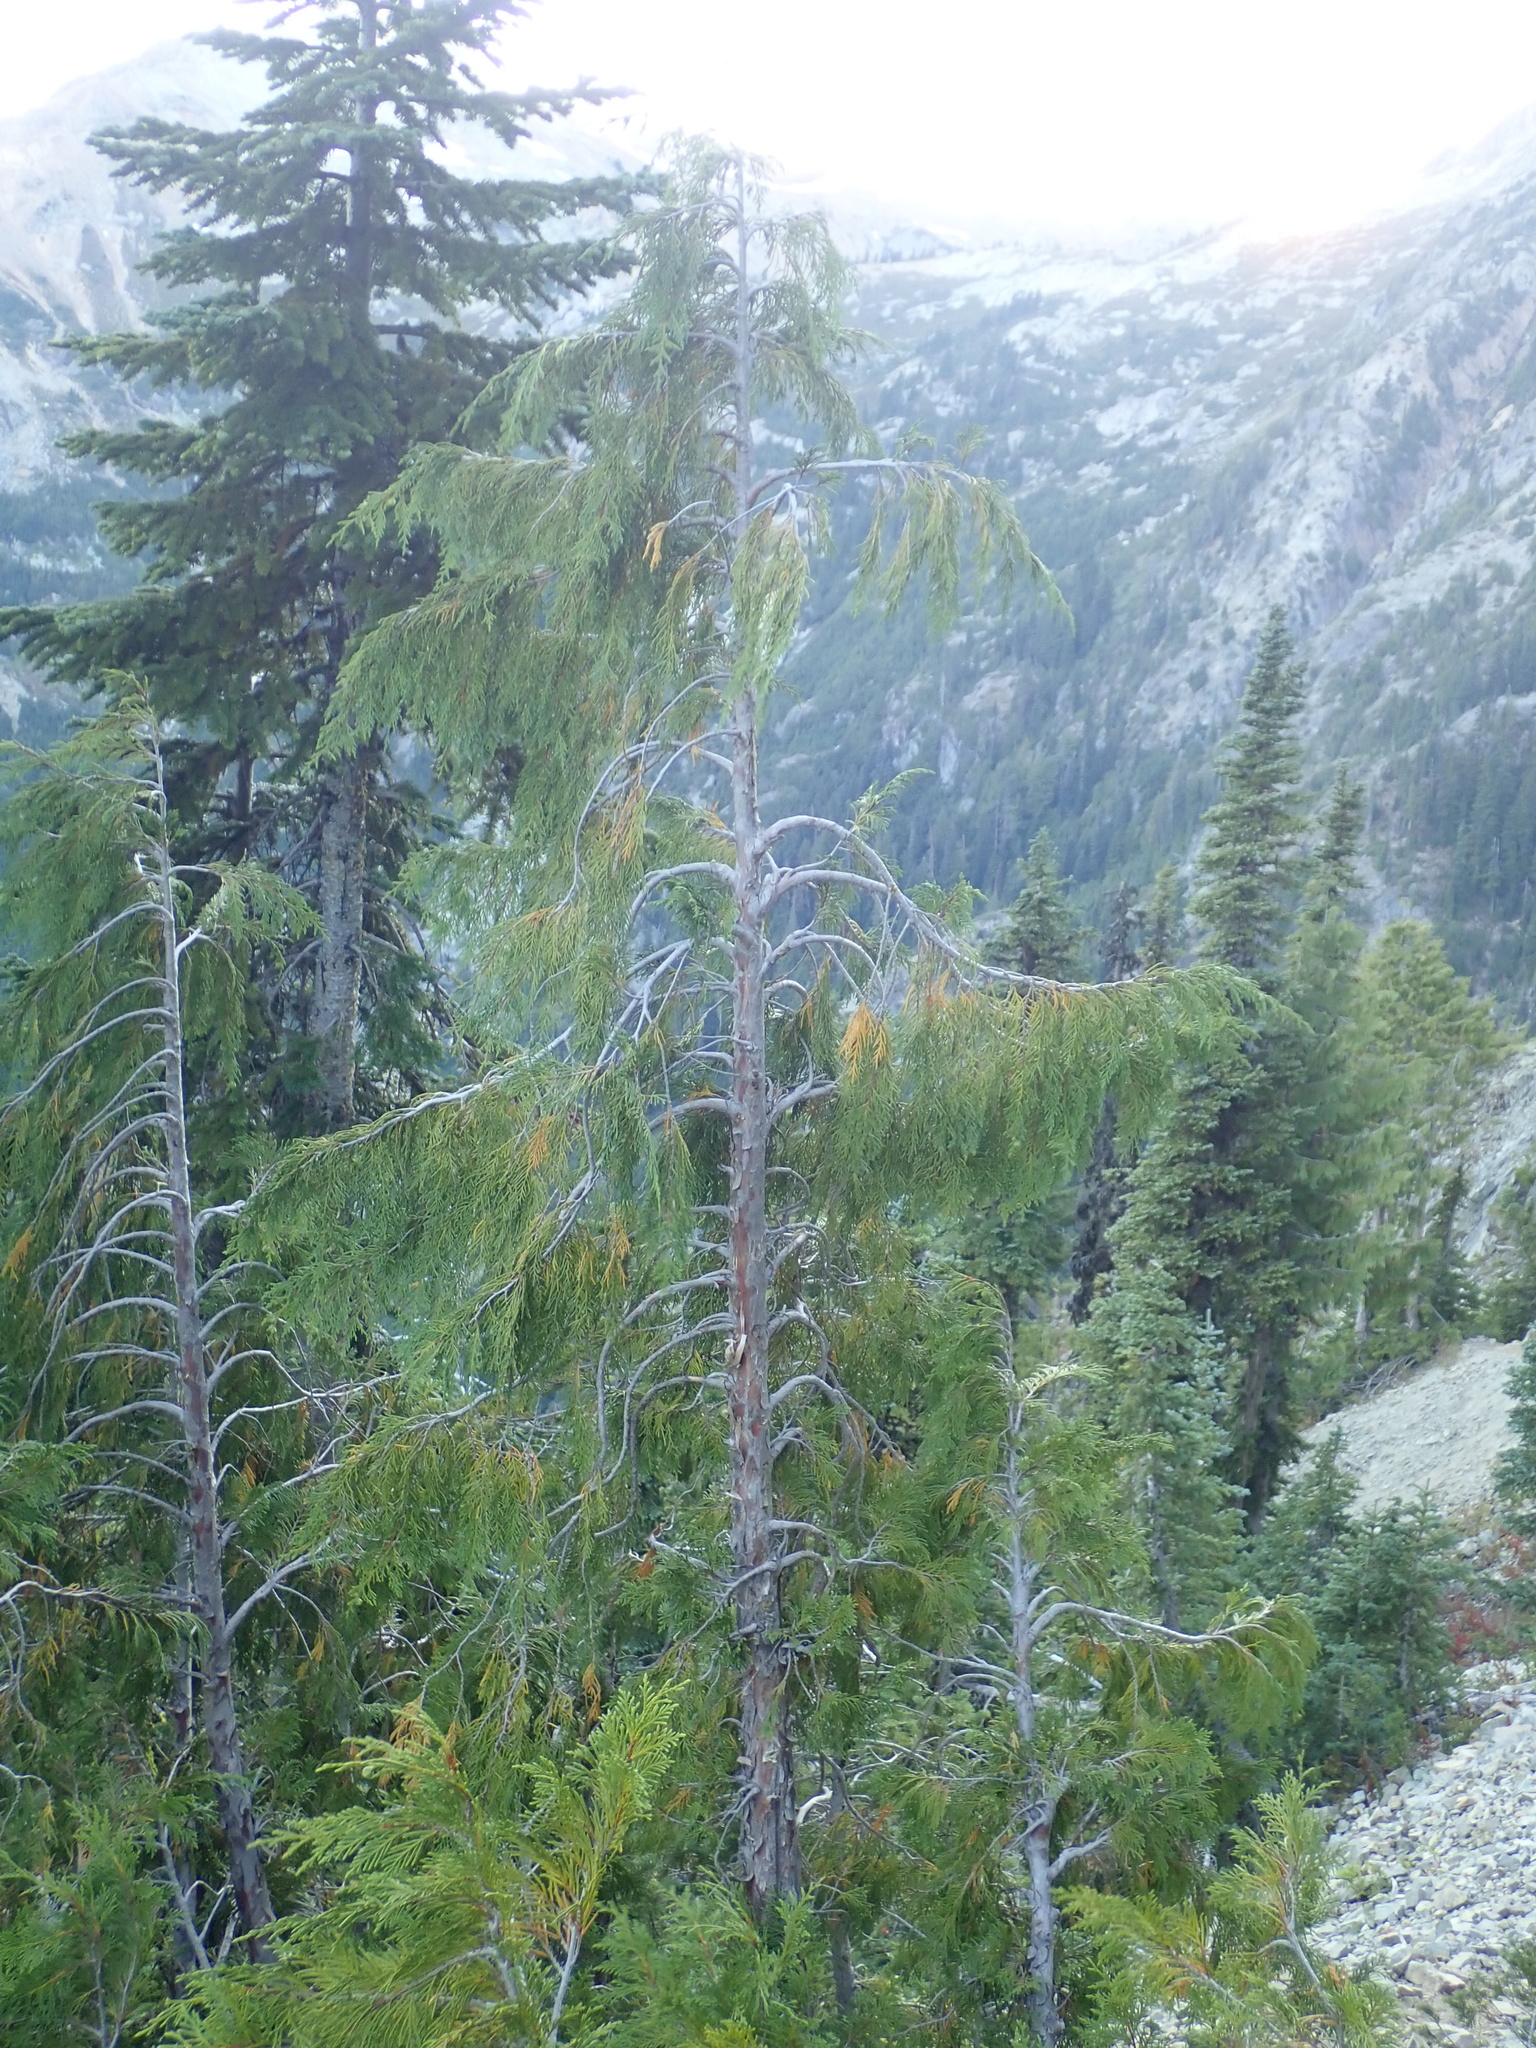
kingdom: Plantae
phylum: Tracheophyta
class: Pinopsida
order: Pinales
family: Cupressaceae
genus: Xanthocyparis
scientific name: Xanthocyparis nootkatensis
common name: Nootka cypress
